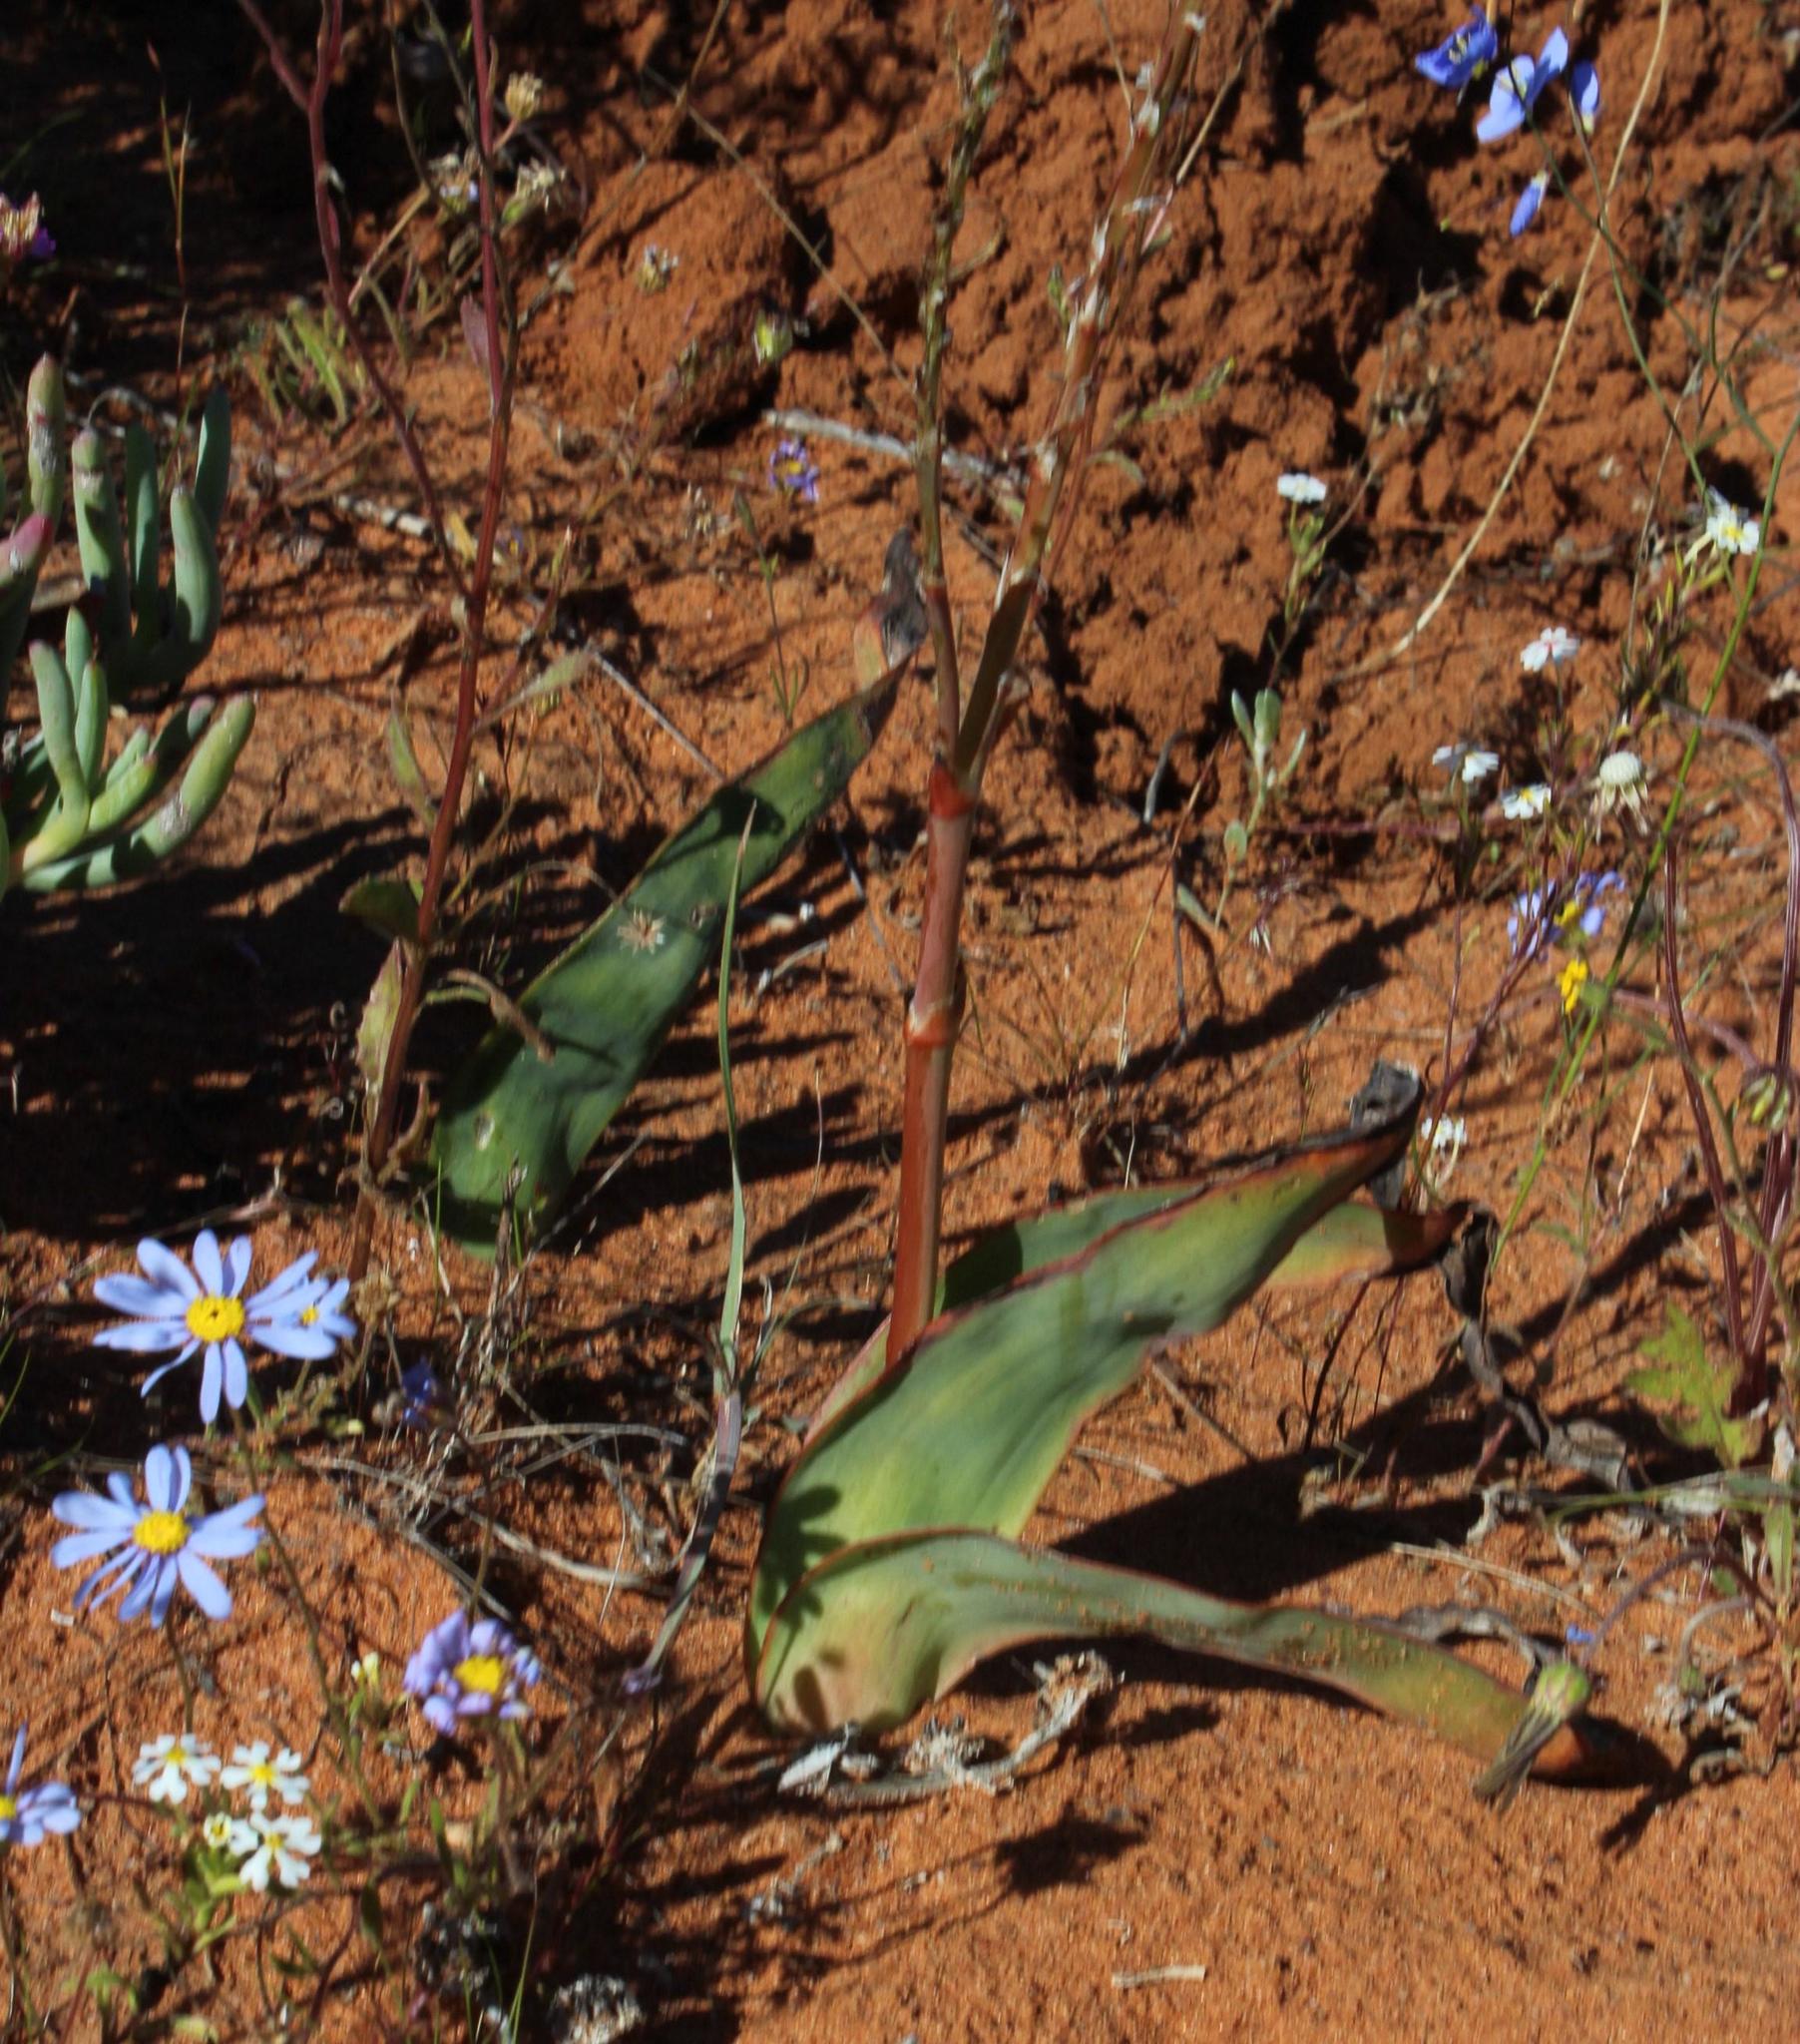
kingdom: Plantae
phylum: Tracheophyta
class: Liliopsida
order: Asparagales
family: Asphodelaceae
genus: Trachyandra
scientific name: Trachyandra falcata
